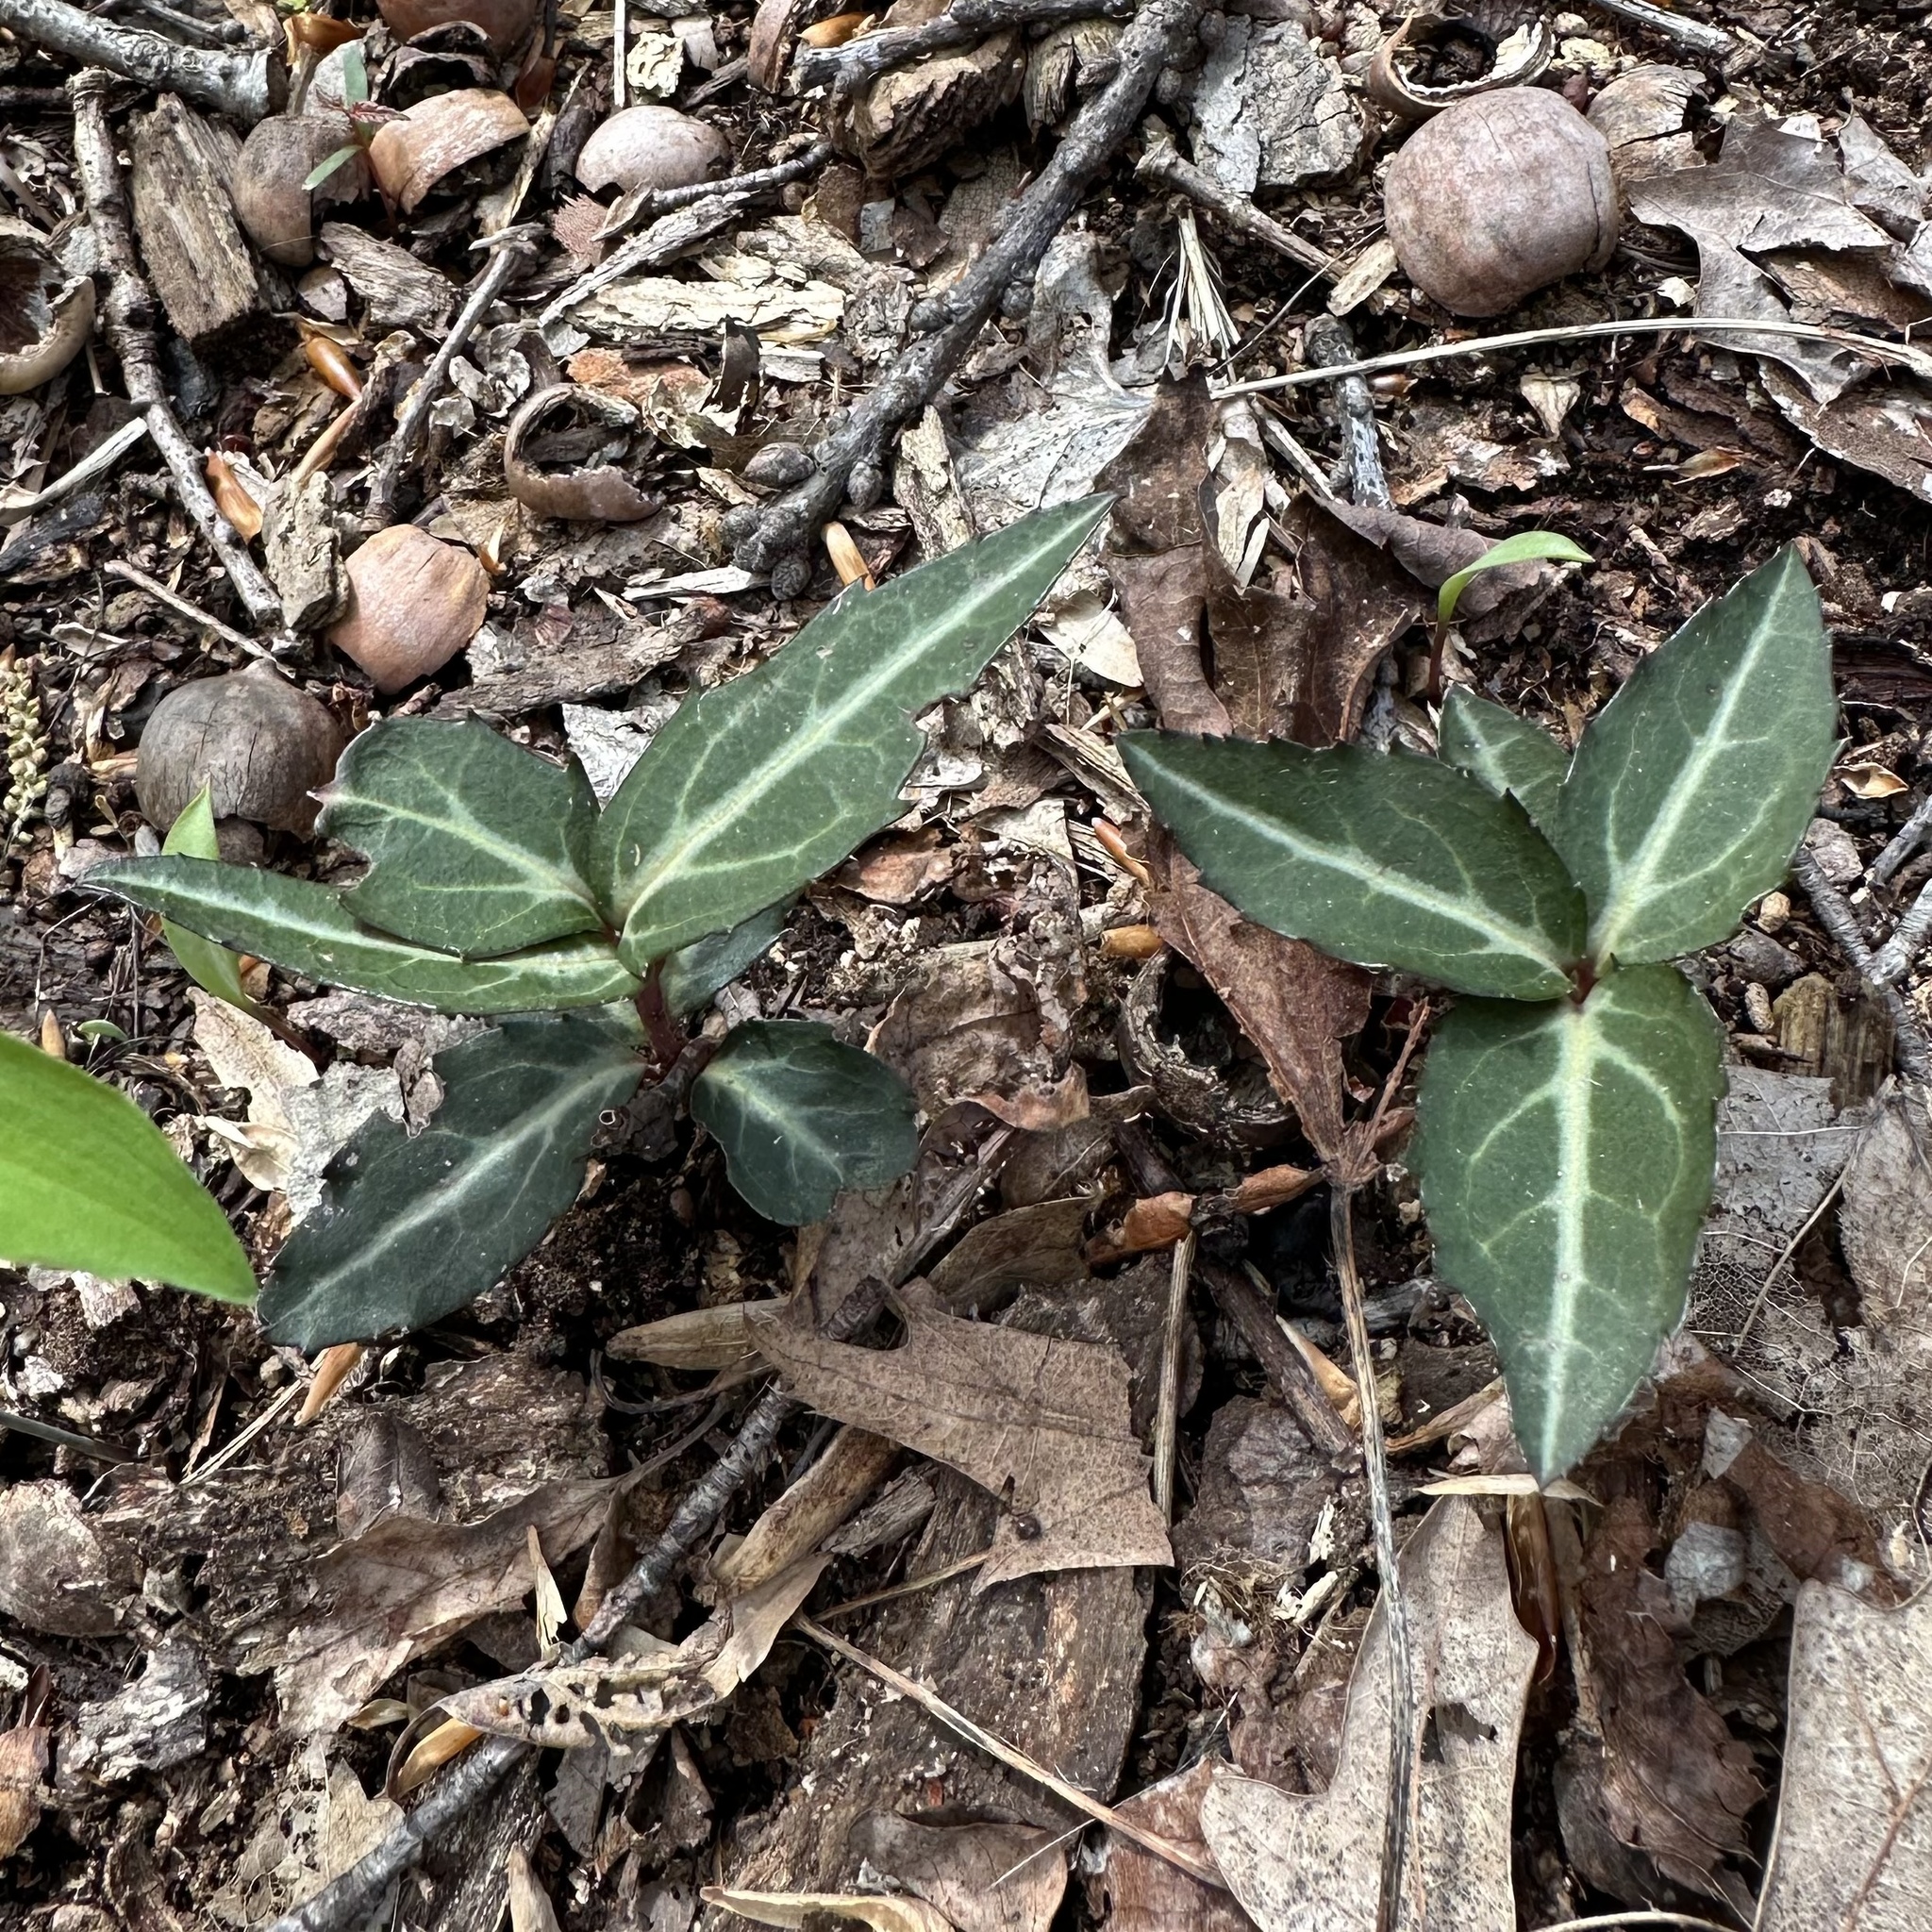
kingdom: Plantae
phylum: Tracheophyta
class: Magnoliopsida
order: Ericales
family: Ericaceae
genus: Chimaphila
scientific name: Chimaphila maculata
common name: Spotted pipsissewa
